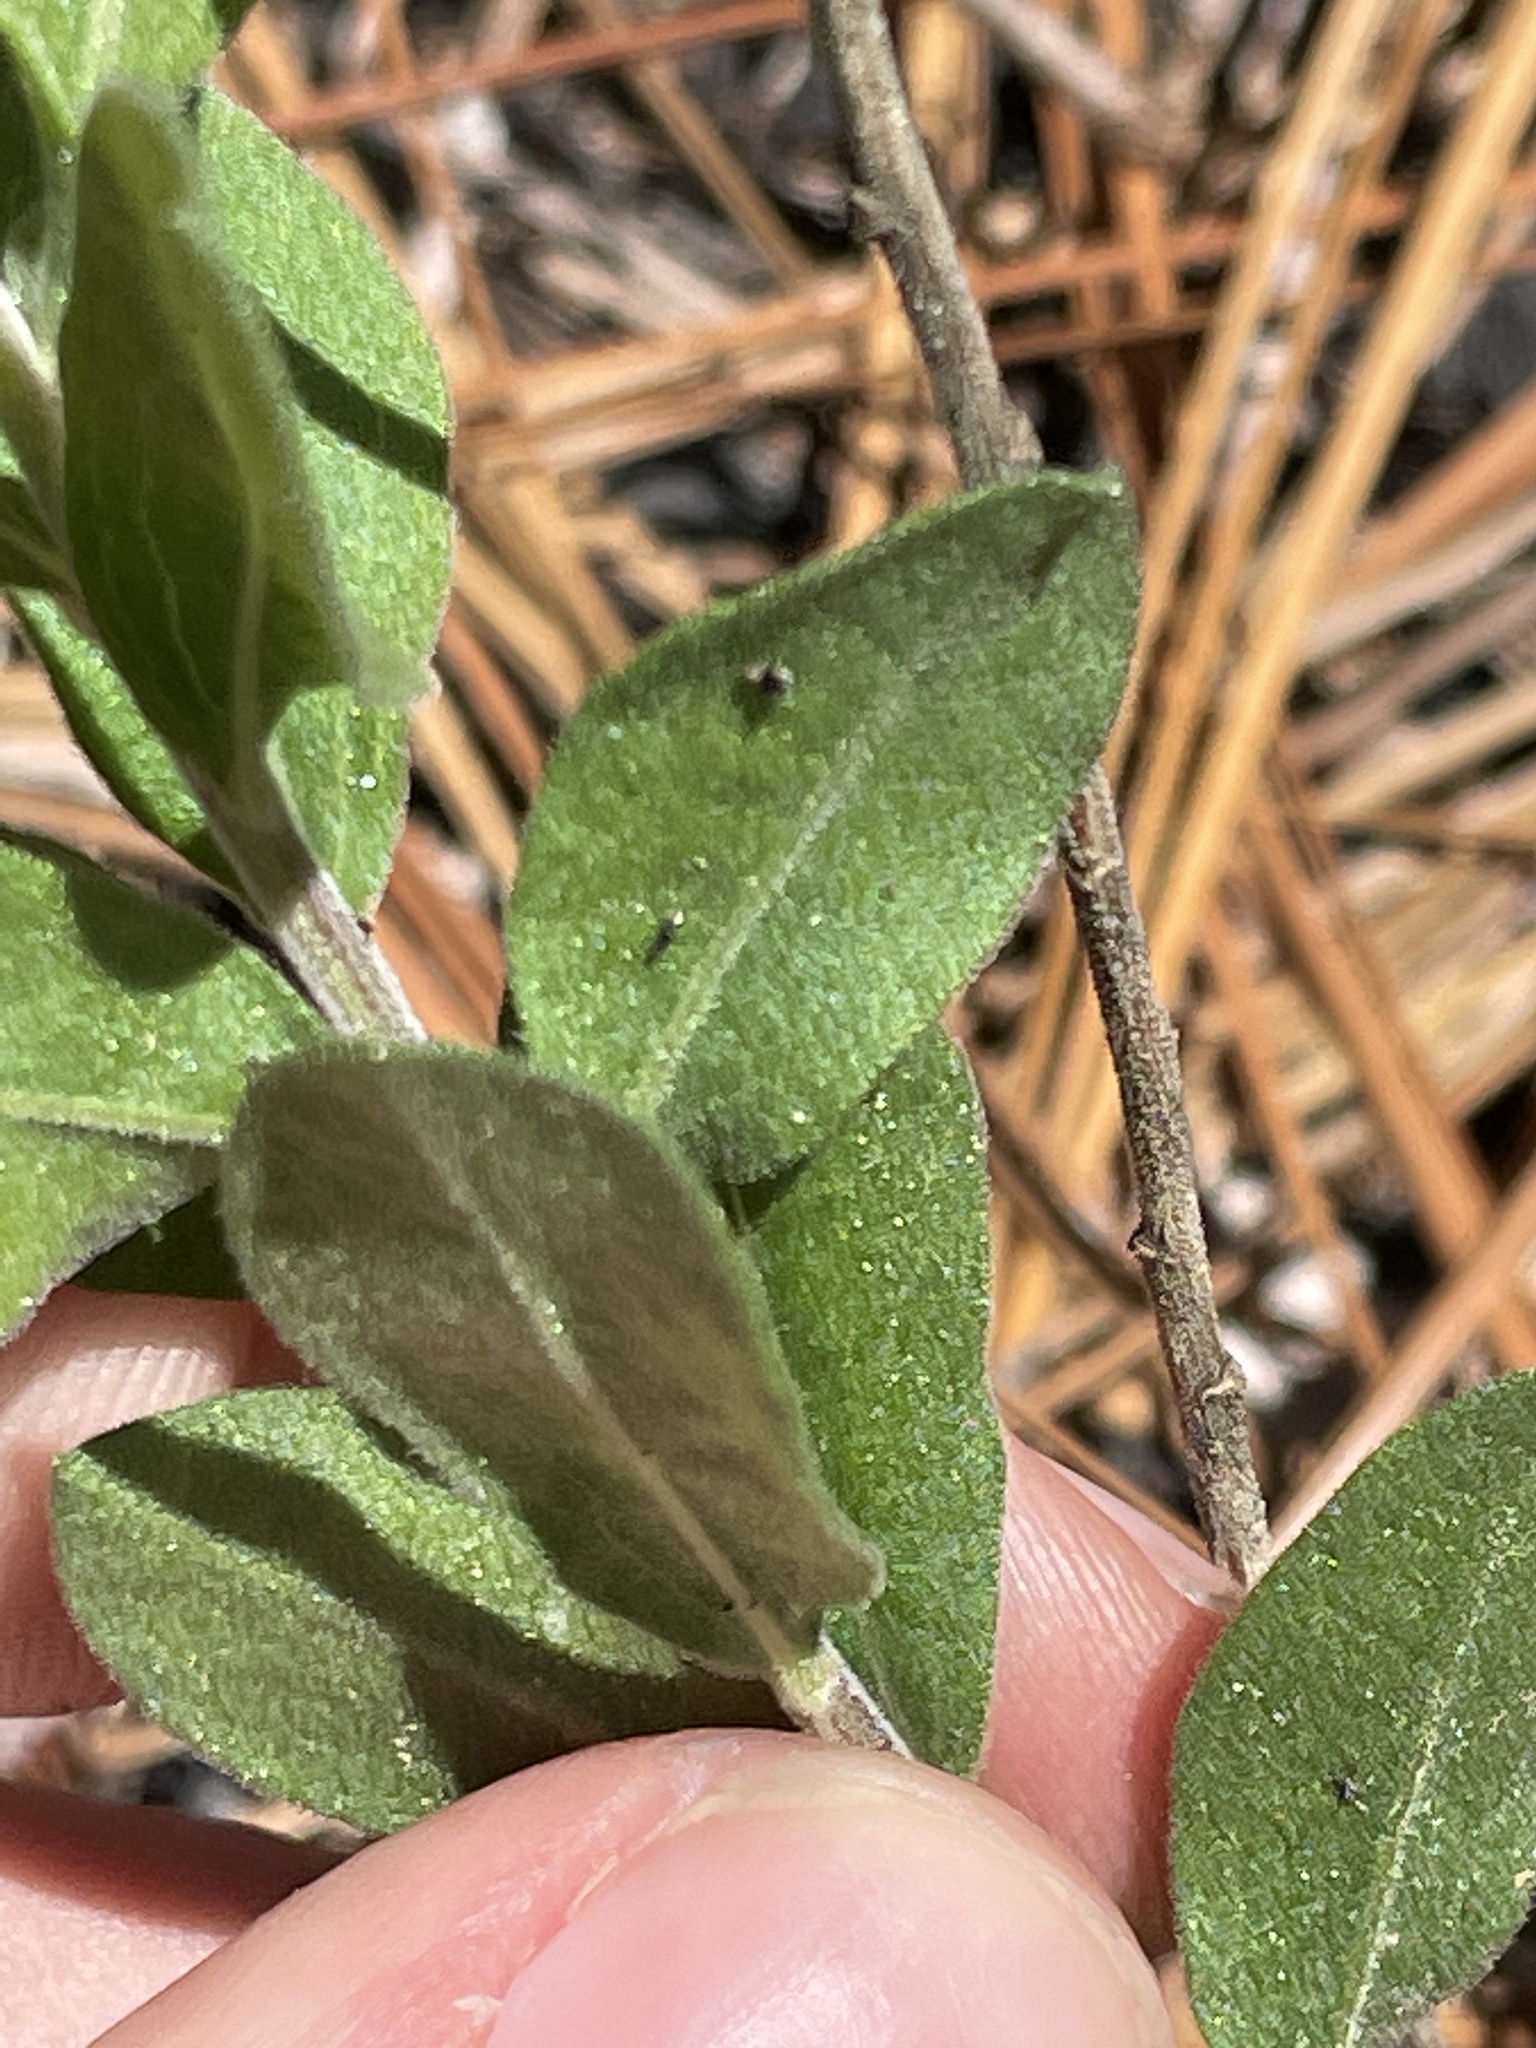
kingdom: Plantae
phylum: Tracheophyta
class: Magnoliopsida
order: Asterales
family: Asteraceae
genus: Sericocarpus
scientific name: Sericocarpus tortifolius
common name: Dixie aster
